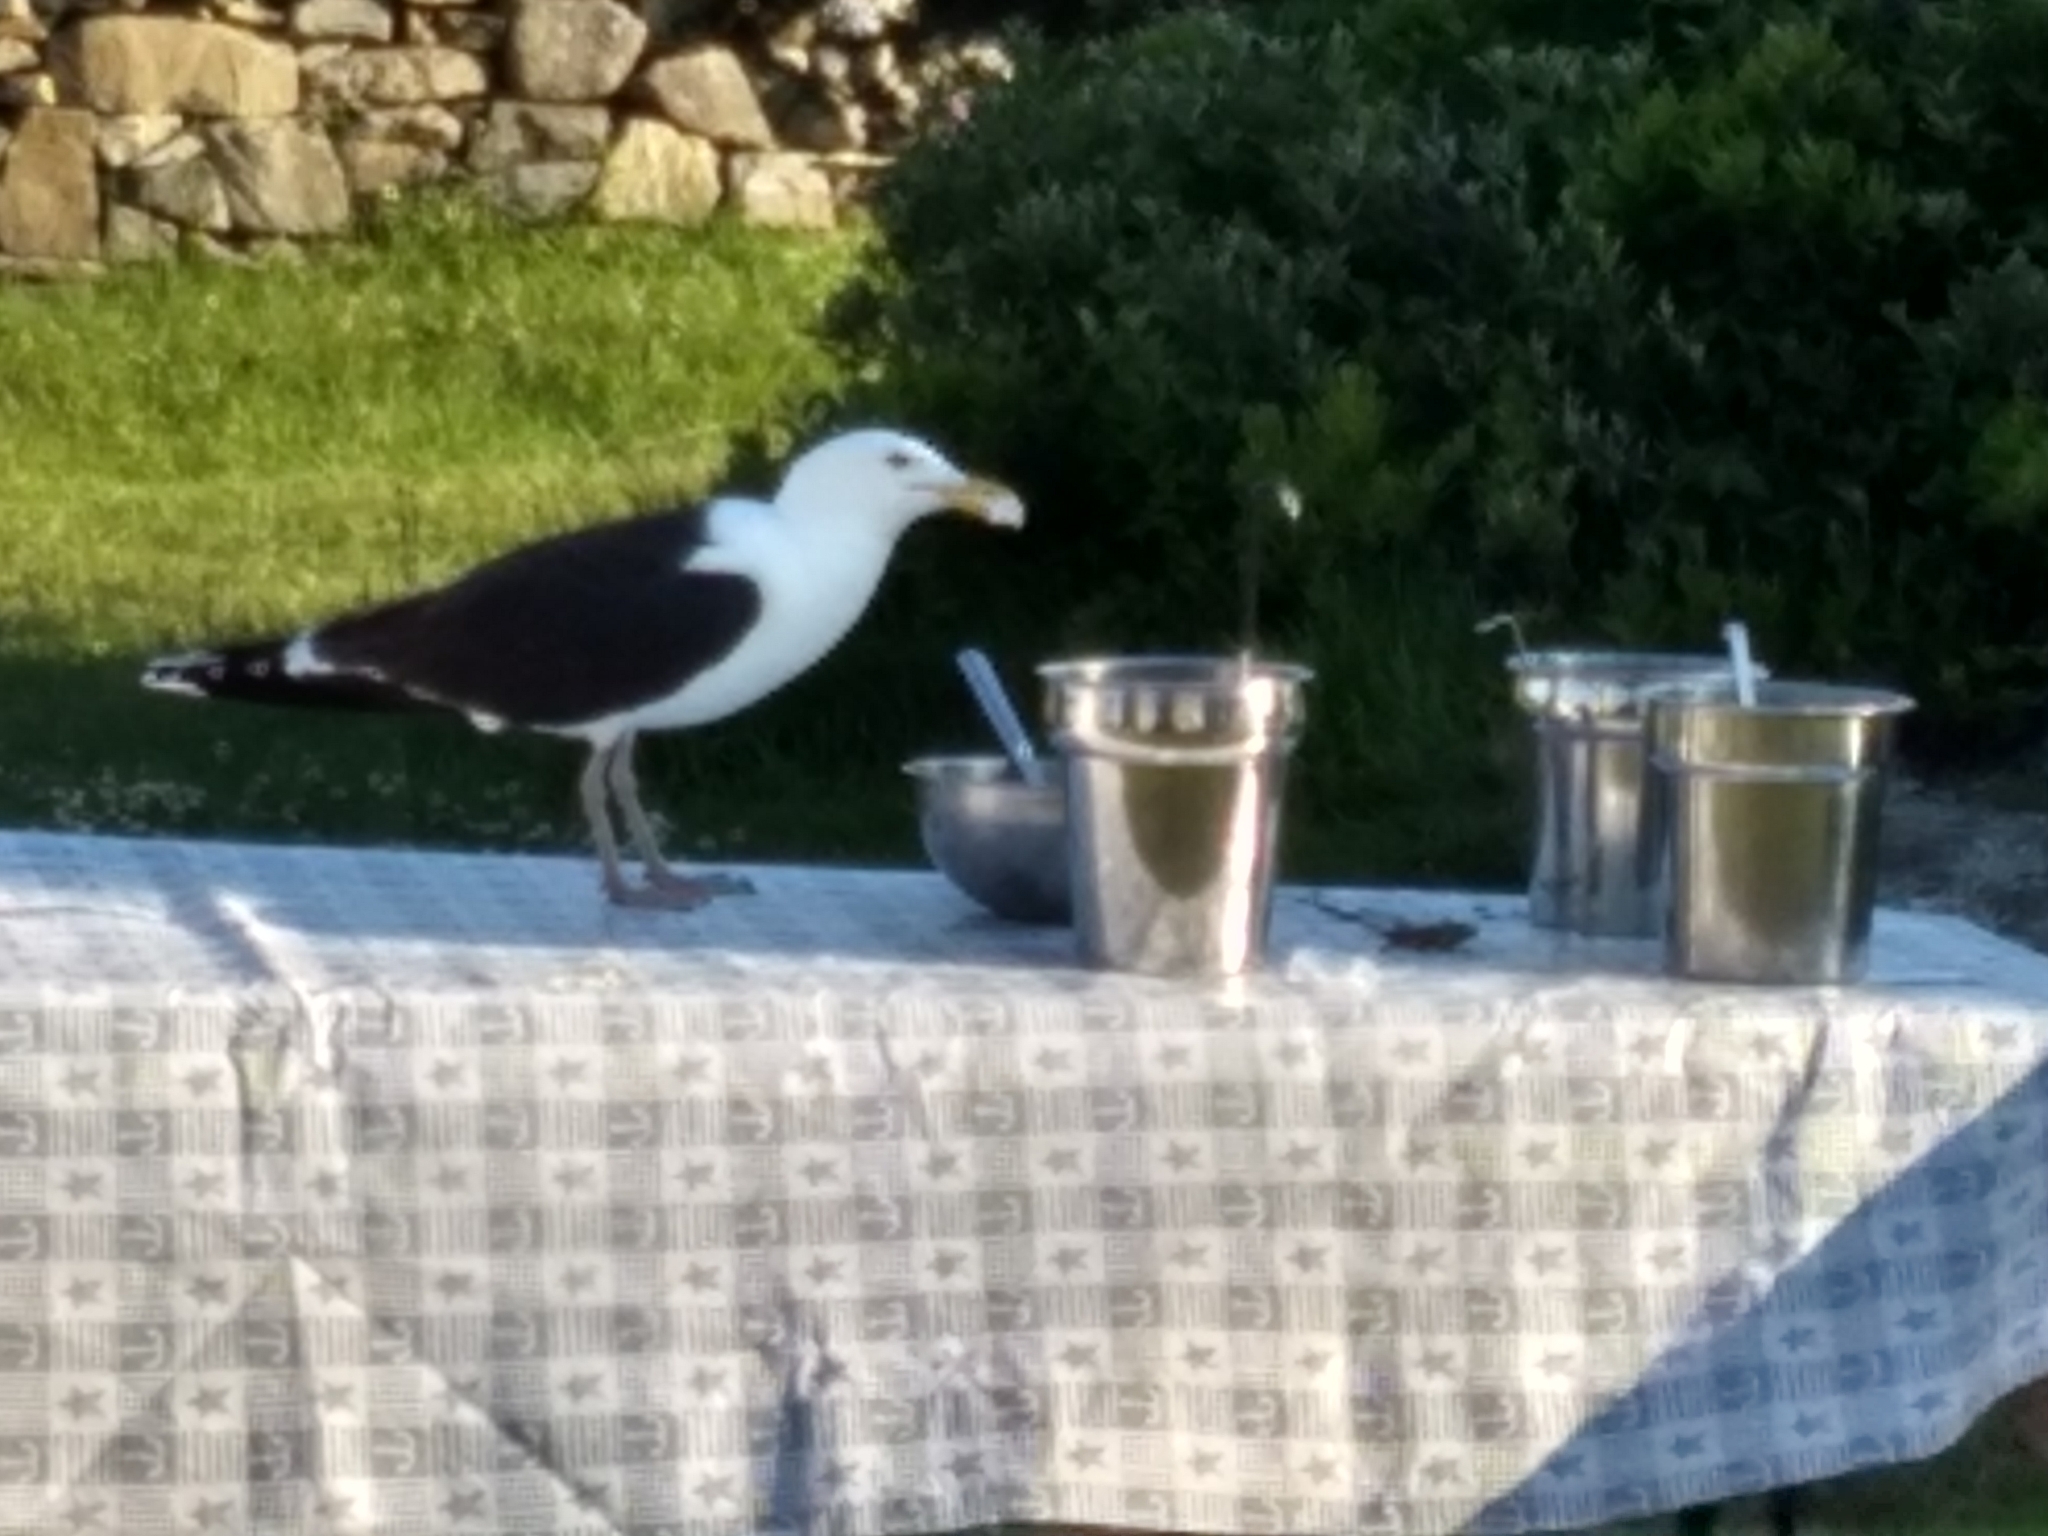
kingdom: Animalia
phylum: Chordata
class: Aves
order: Charadriiformes
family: Laridae
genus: Larus
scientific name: Larus marinus
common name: Great black-backed gull
